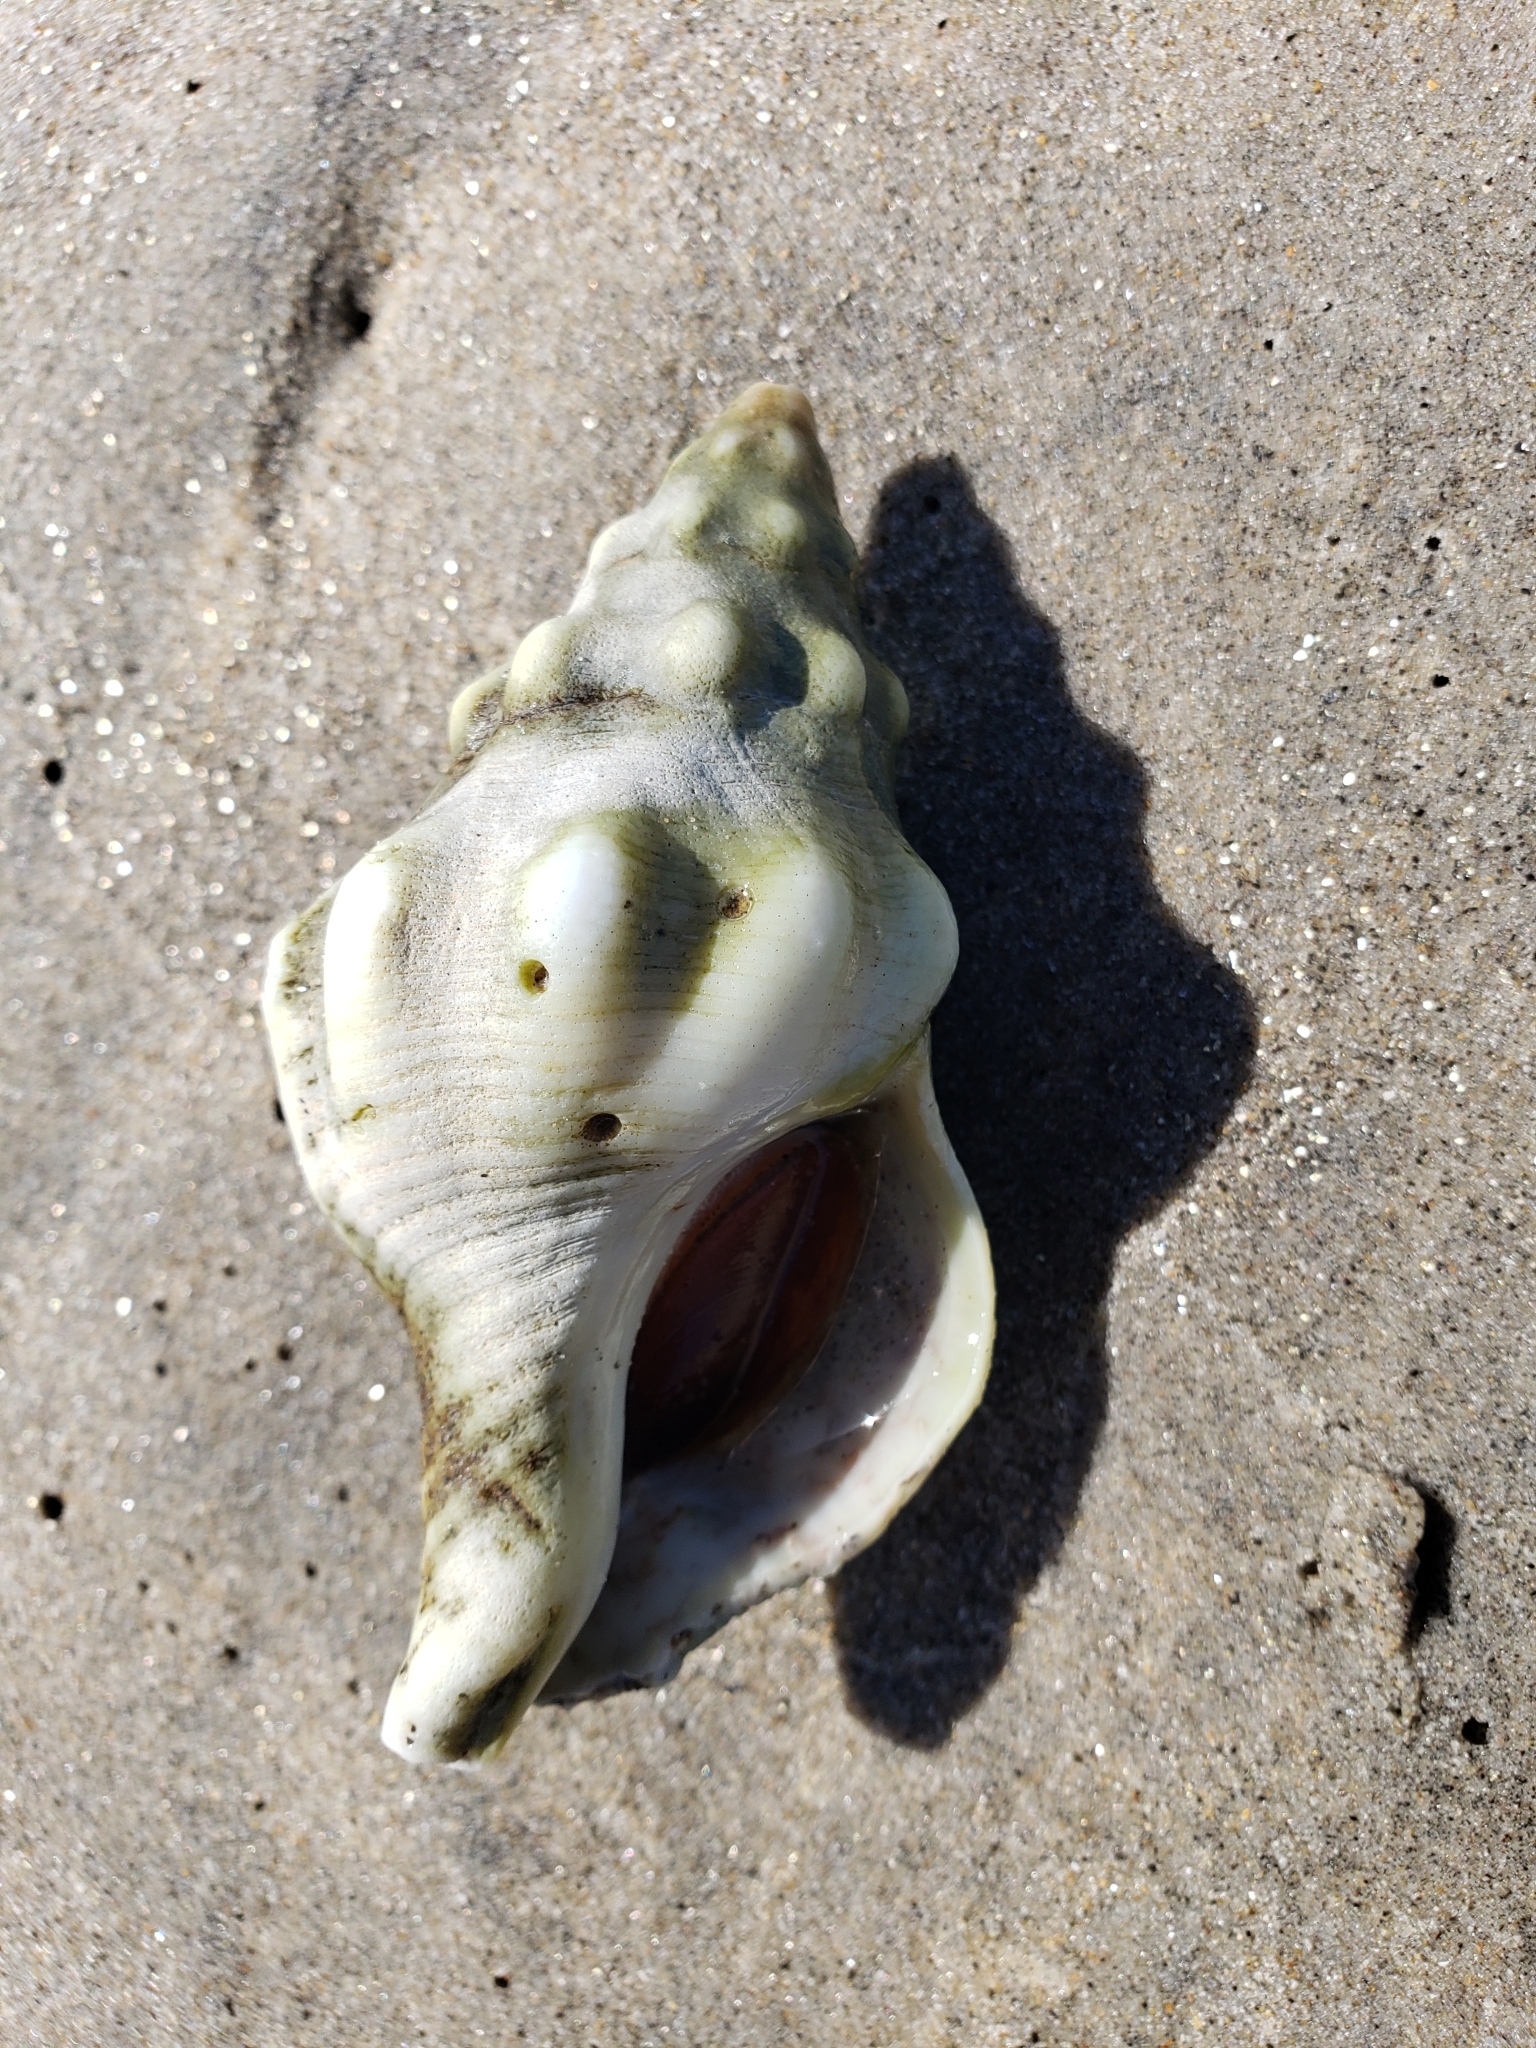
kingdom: Animalia
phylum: Mollusca
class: Gastropoda
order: Neogastropoda
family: Austrosiphonidae
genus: Kelletia
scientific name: Kelletia kelletii
